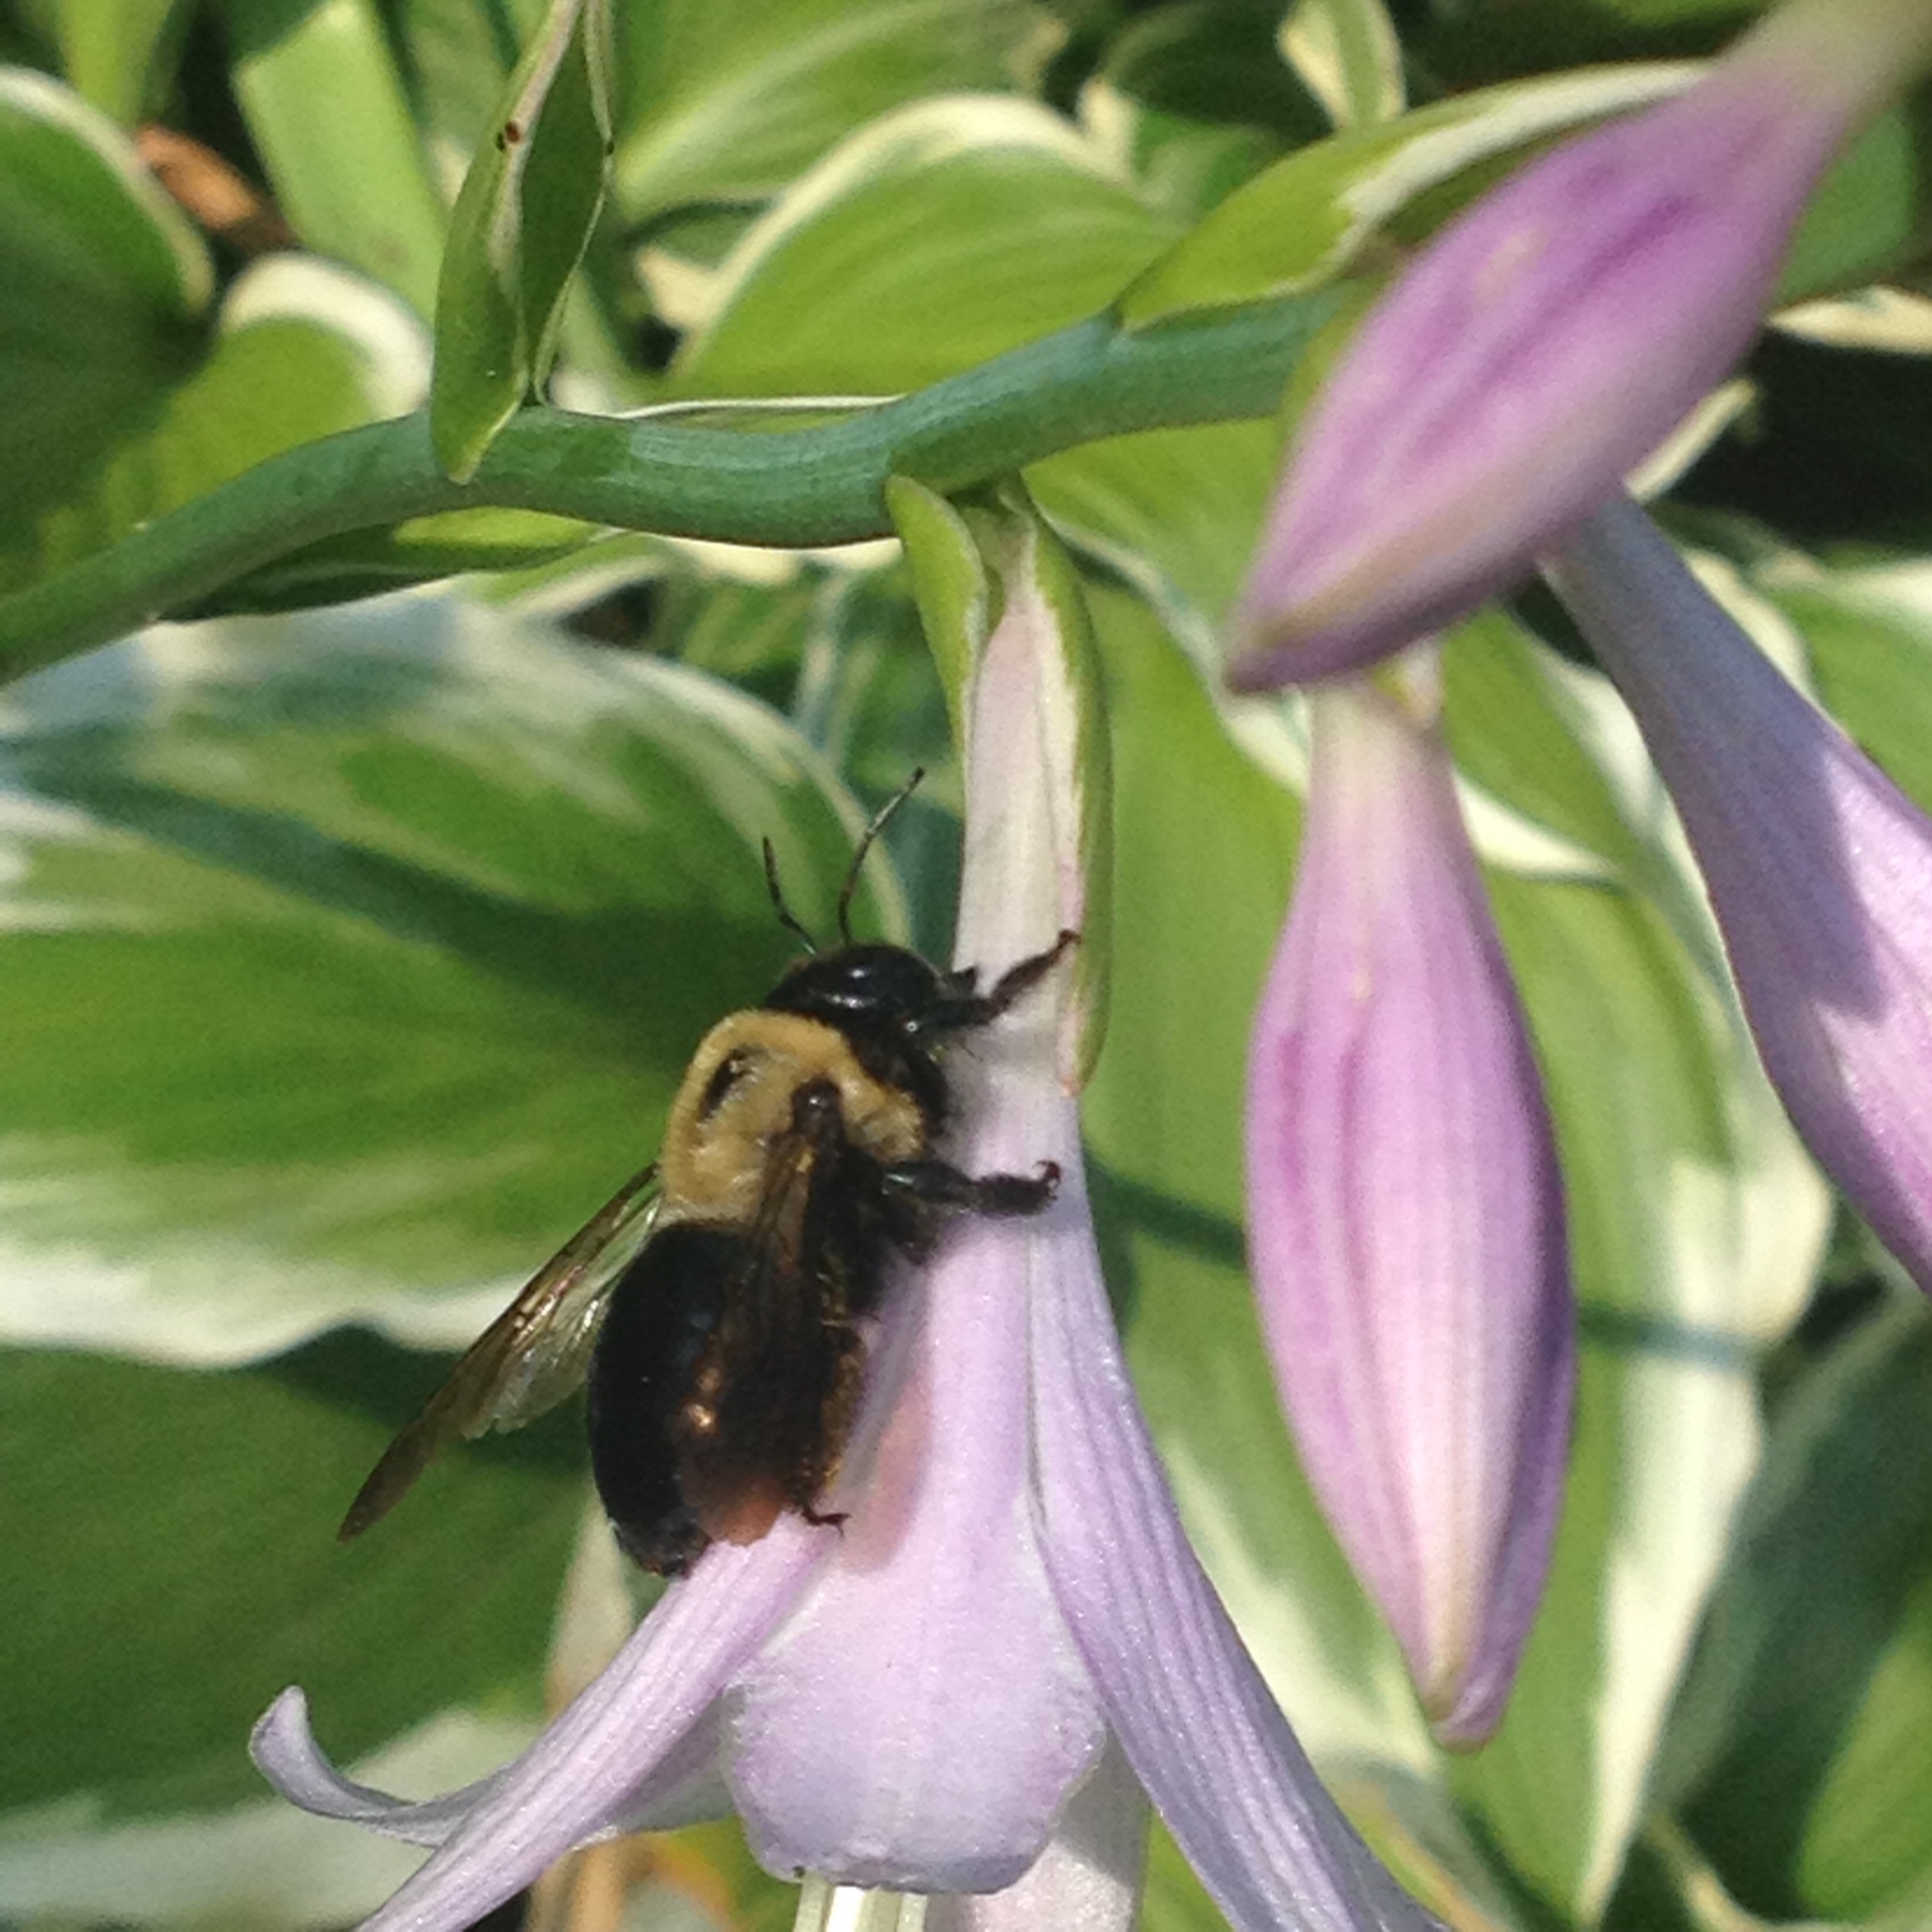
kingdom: Animalia
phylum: Arthropoda
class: Insecta
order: Hymenoptera
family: Apidae
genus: Xylocopa
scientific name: Xylocopa virginica
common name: Carpenter bee
